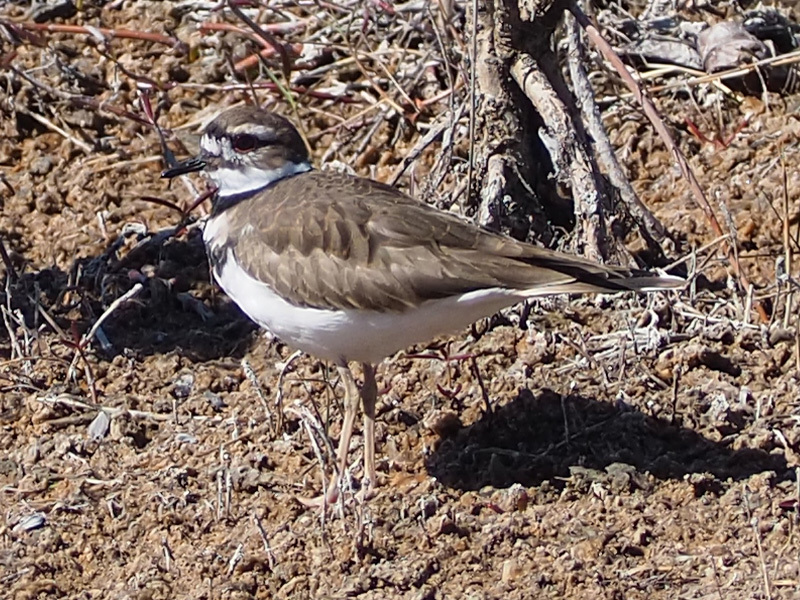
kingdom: Animalia
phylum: Chordata
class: Aves
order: Charadriiformes
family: Charadriidae
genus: Charadrius
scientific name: Charadrius vociferus
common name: Killdeer
